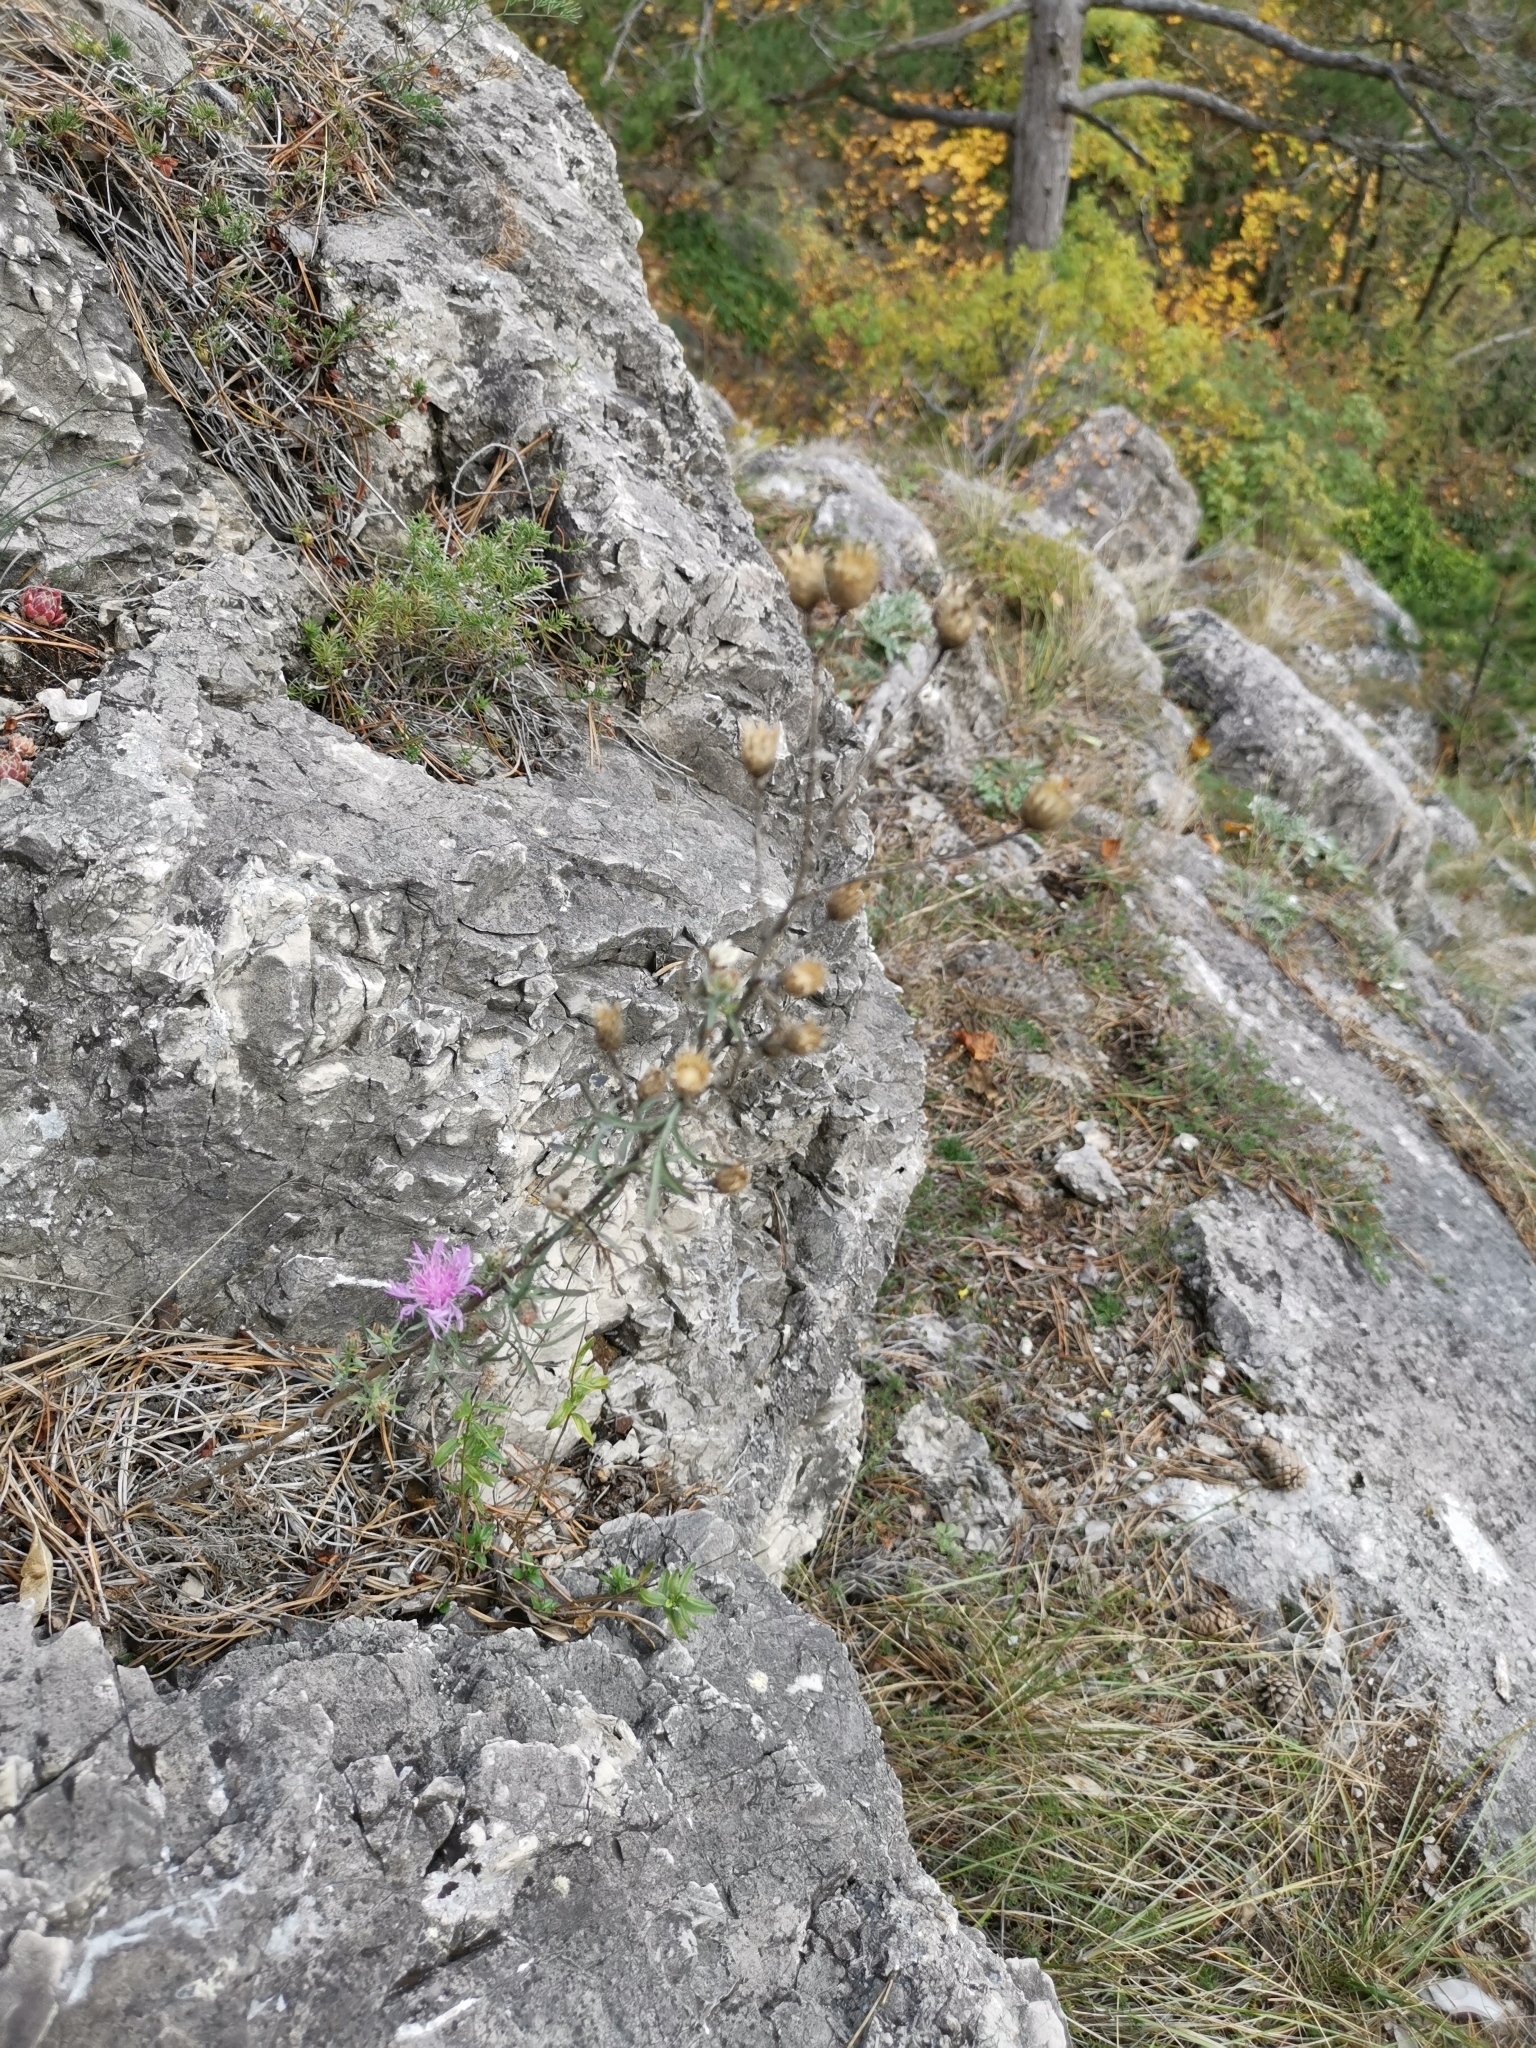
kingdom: Plantae
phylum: Tracheophyta
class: Magnoliopsida
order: Asterales
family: Asteraceae
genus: Centaurea
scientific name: Centaurea stoebe
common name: Spotted knapweed
